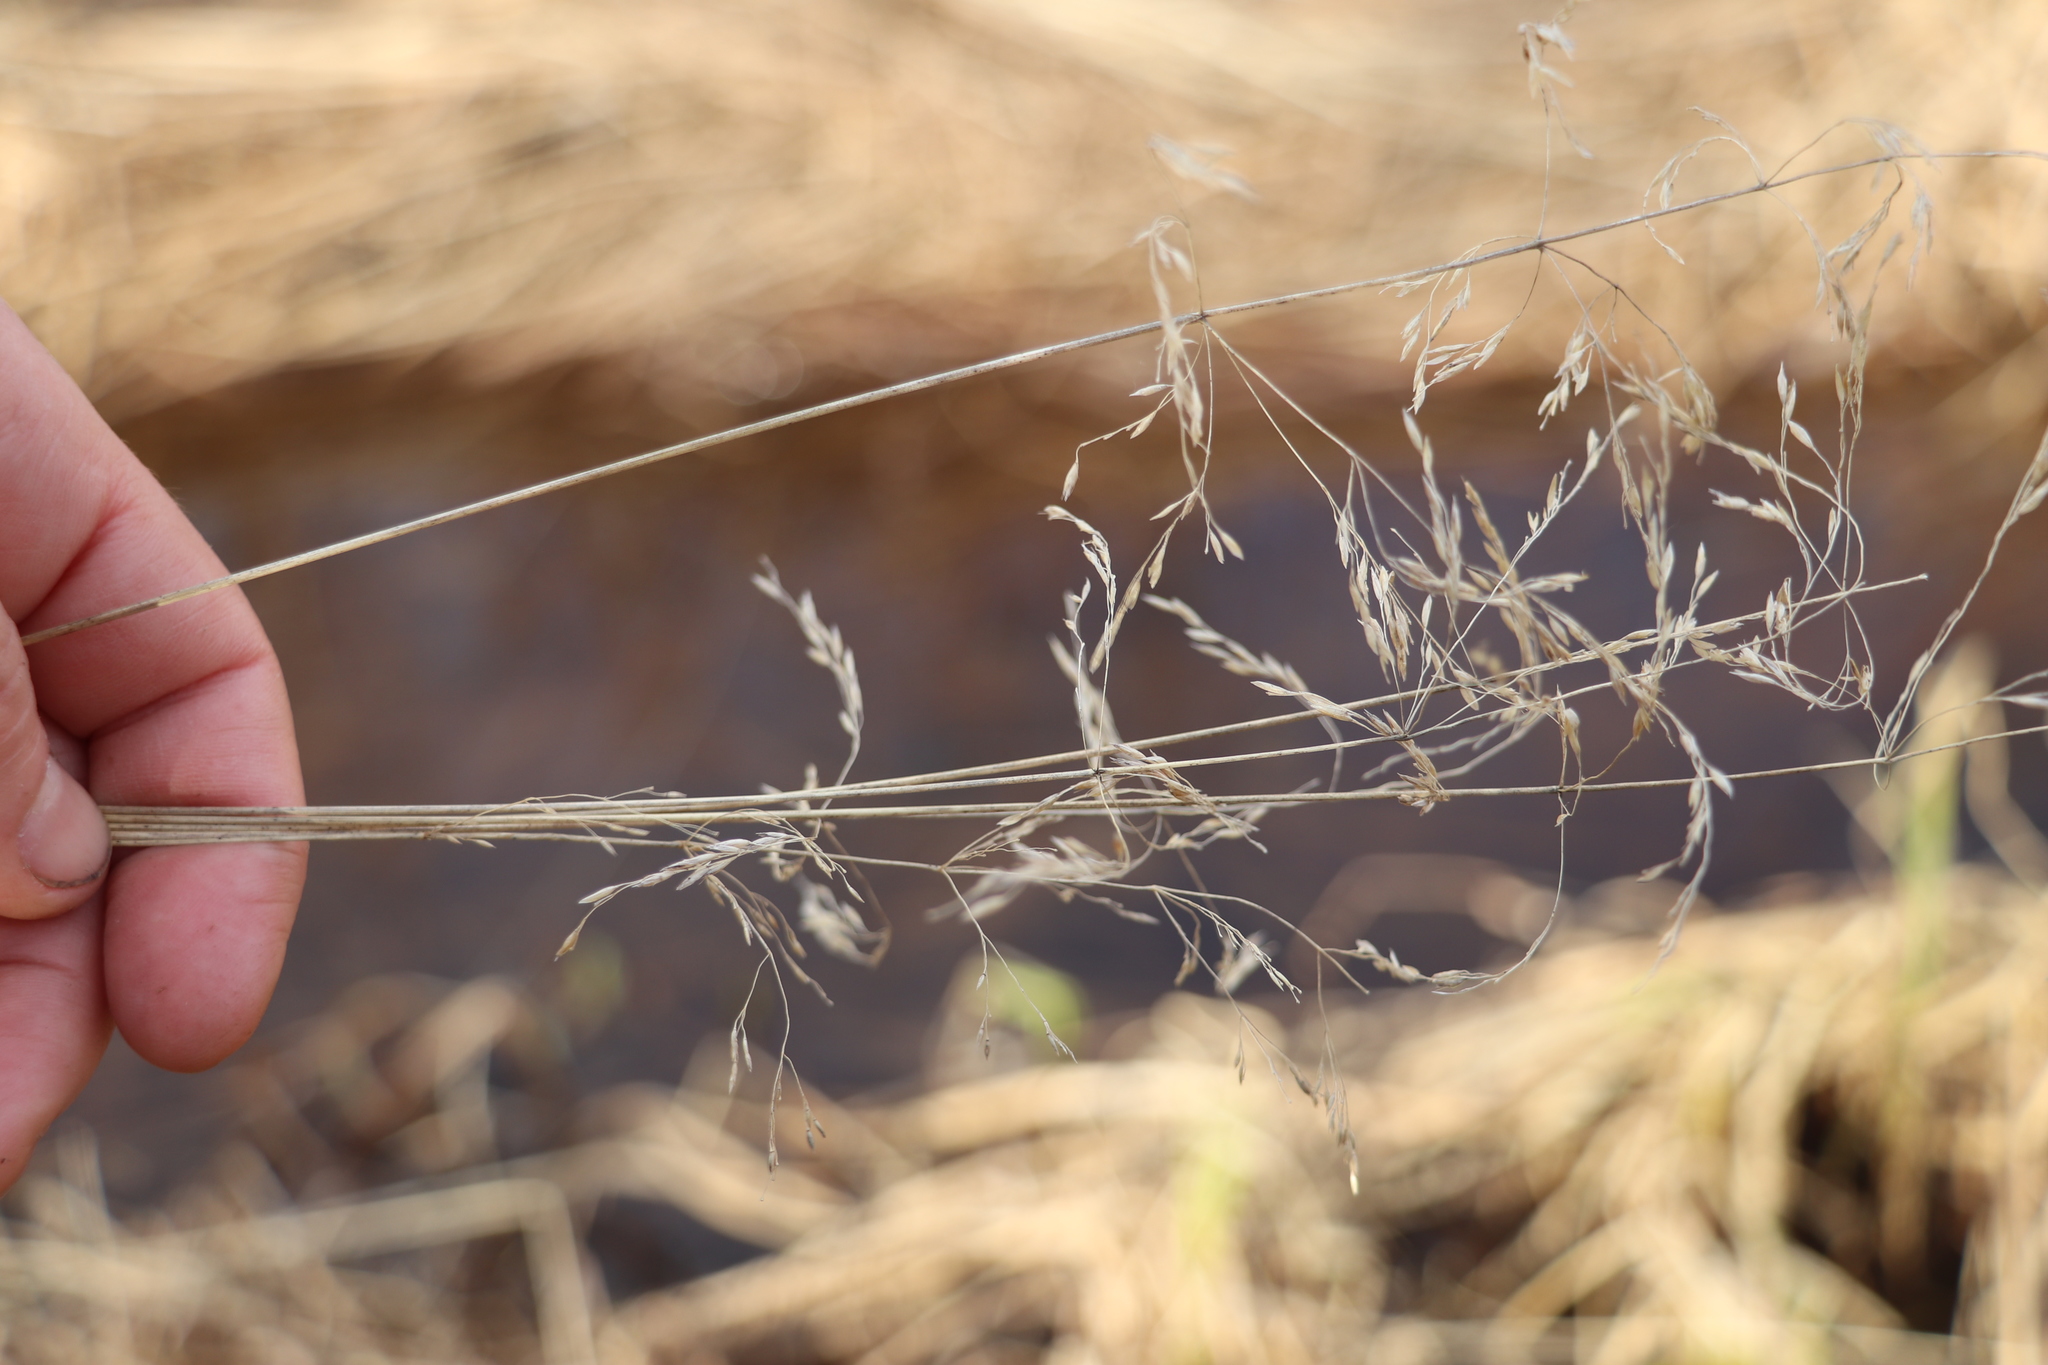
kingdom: Plantae
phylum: Tracheophyta
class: Liliopsida
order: Poales
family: Poaceae
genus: Deschampsia
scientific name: Deschampsia cespitosa
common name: Tufted hair-grass
